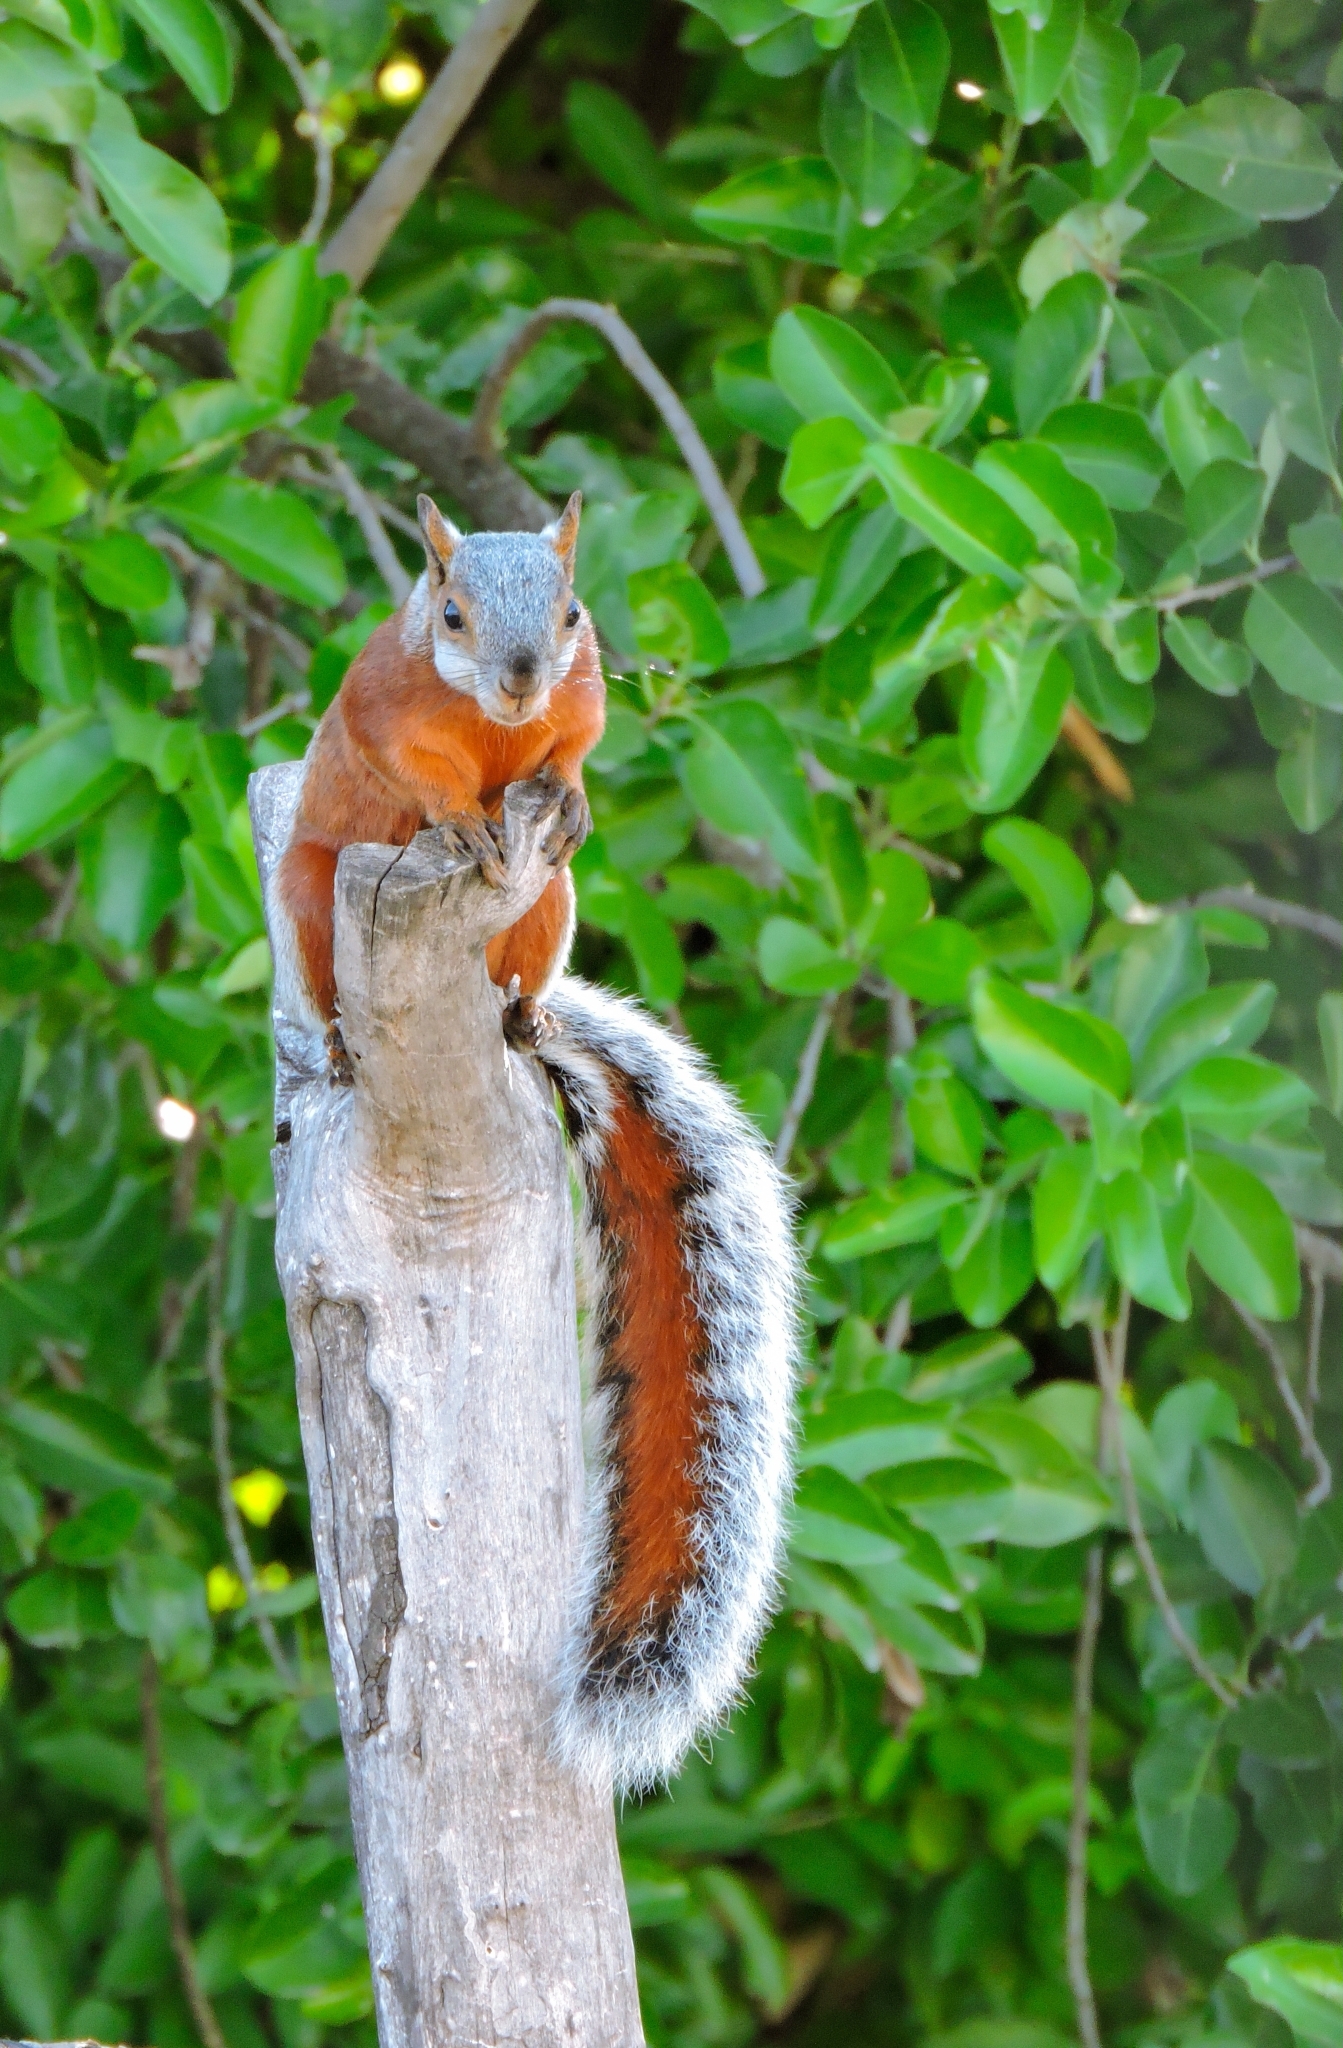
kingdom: Animalia
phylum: Chordata
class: Mammalia
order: Rodentia
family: Sciuridae
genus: Sciurus
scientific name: Sciurus aureogaster
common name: Red-bellied squirrel
